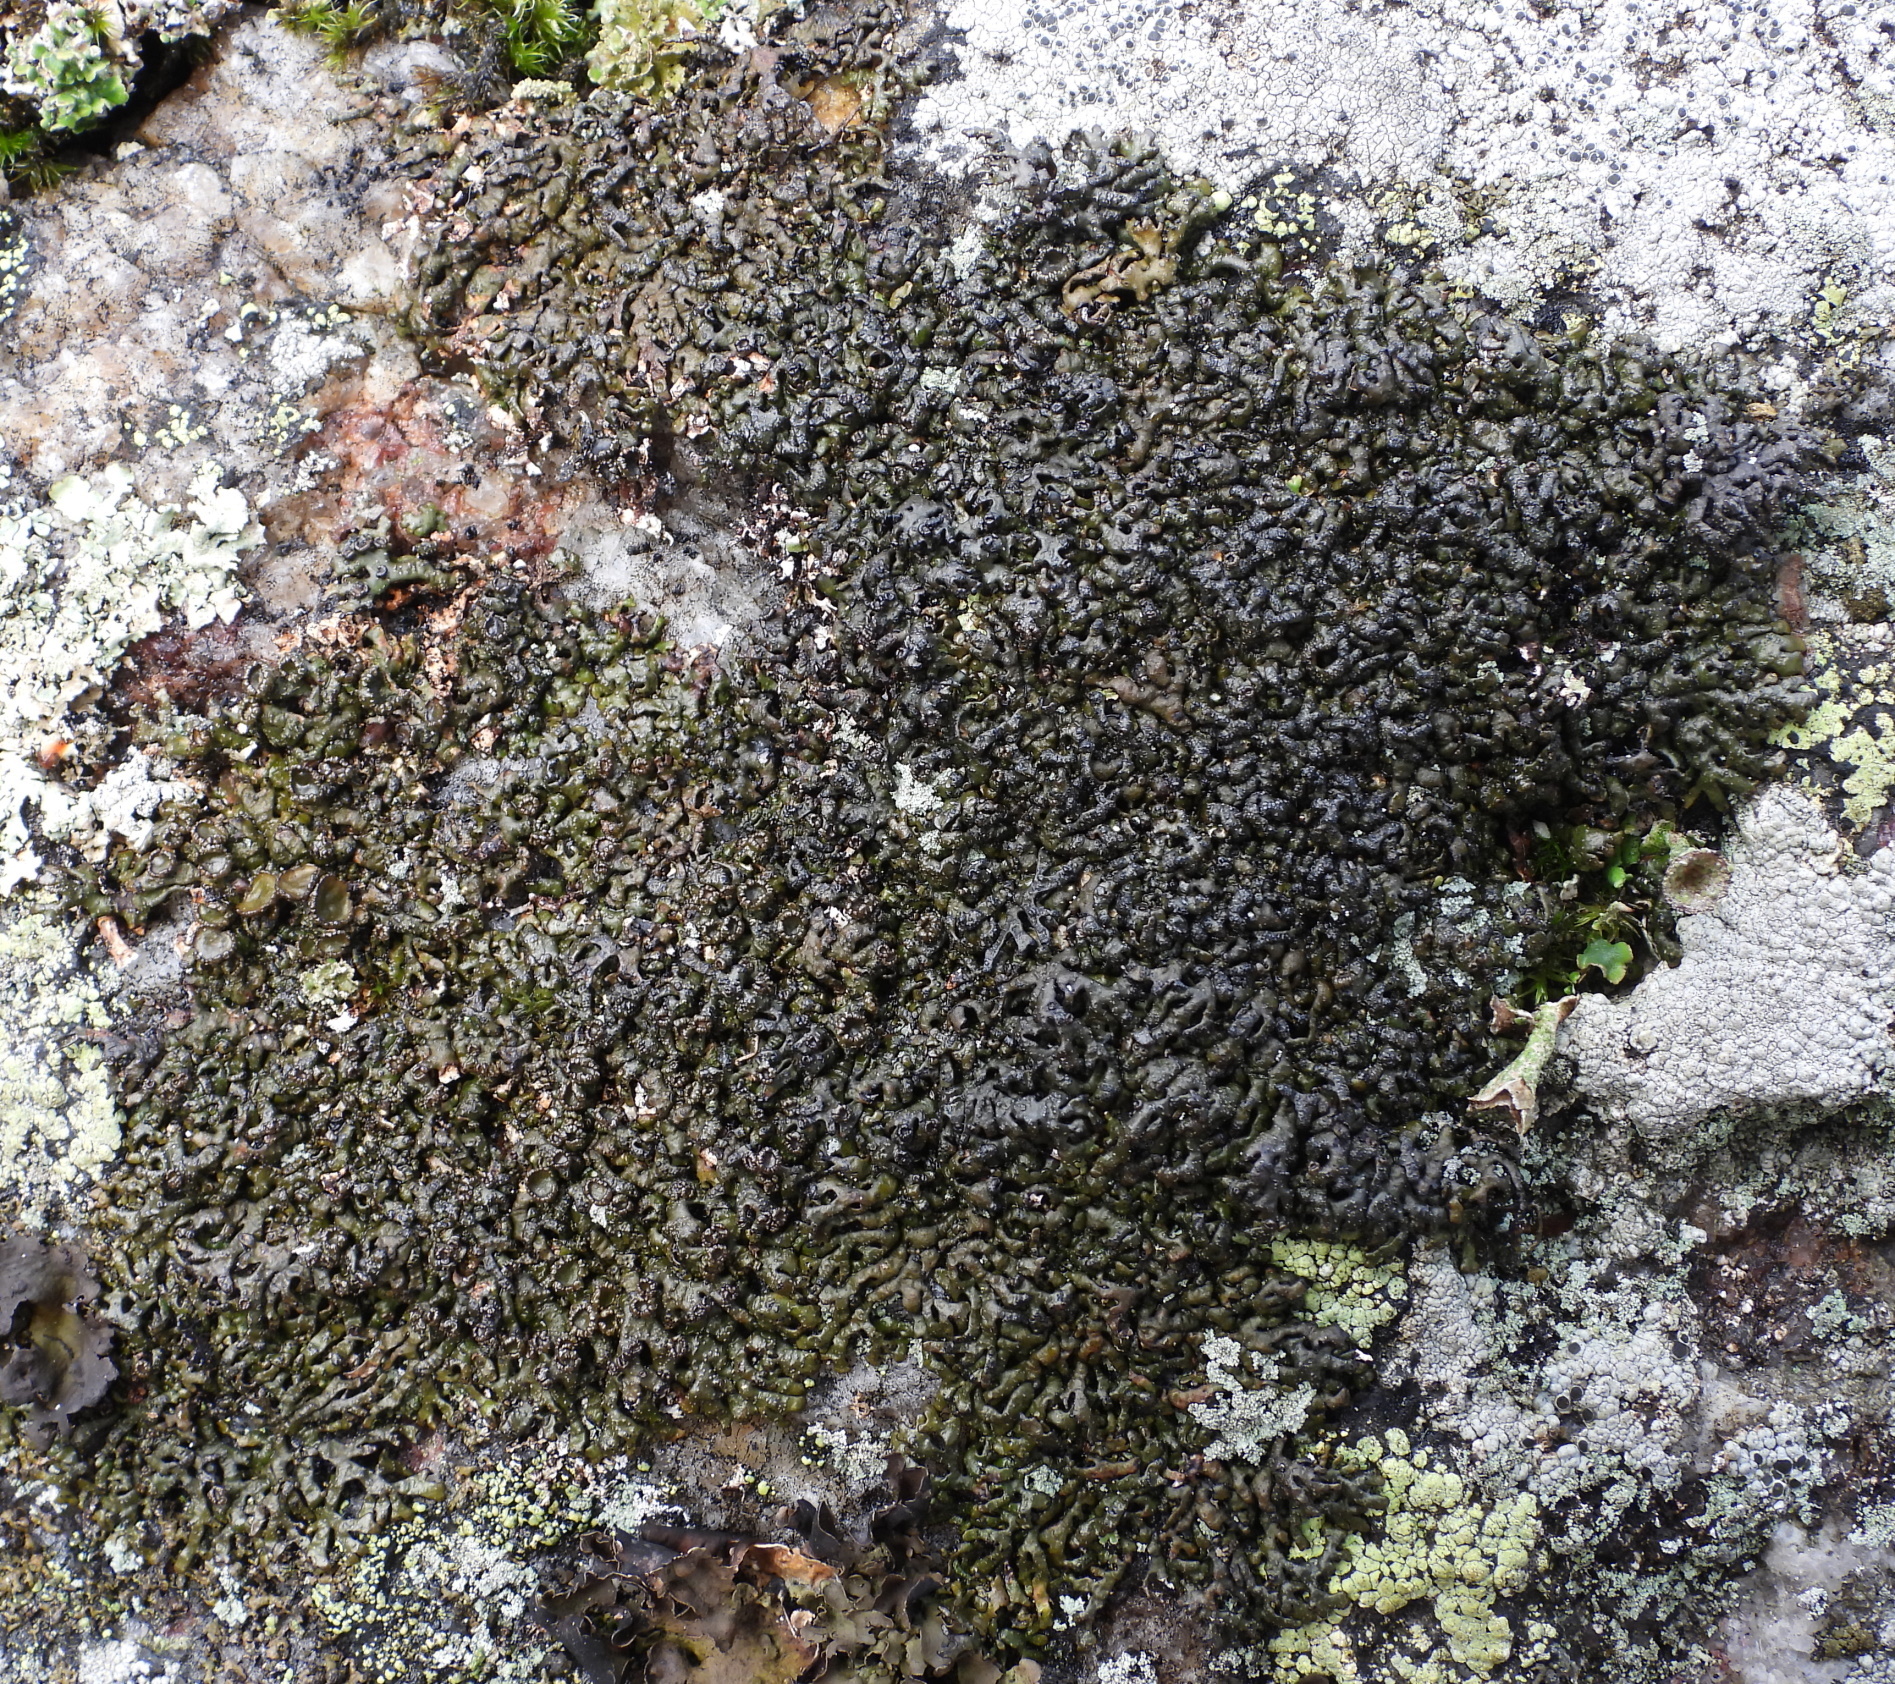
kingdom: Fungi
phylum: Ascomycota
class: Lecanoromycetes
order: Lecanorales
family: Parmeliaceae
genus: Melanelia
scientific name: Melanelia stygia
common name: Alpine camouflage lichen
